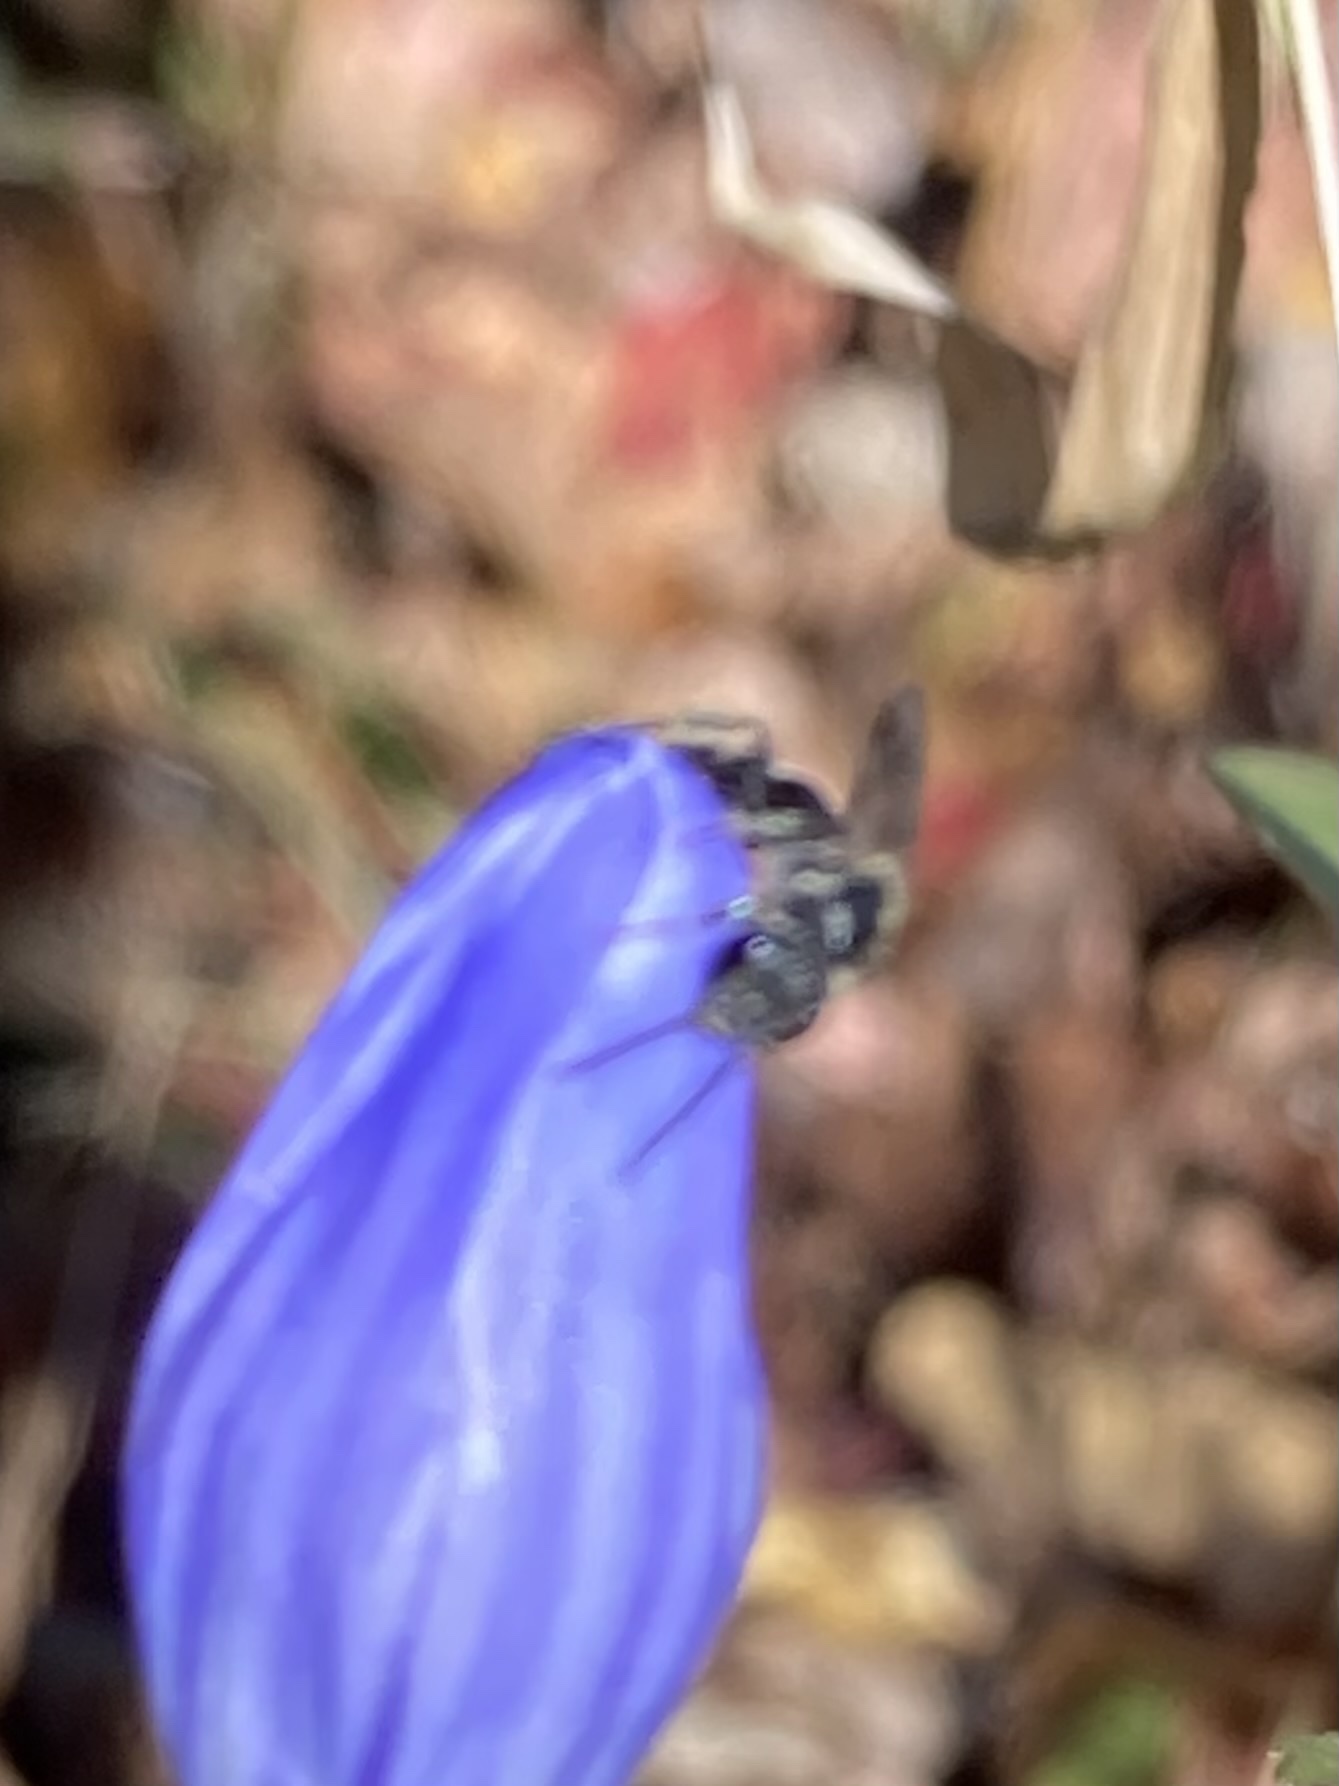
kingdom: Animalia
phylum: Arthropoda
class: Insecta
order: Hymenoptera
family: Halictidae
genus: Lasioglossum
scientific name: Lasioglossum fuscipenne
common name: Brown-winged sweat bee
